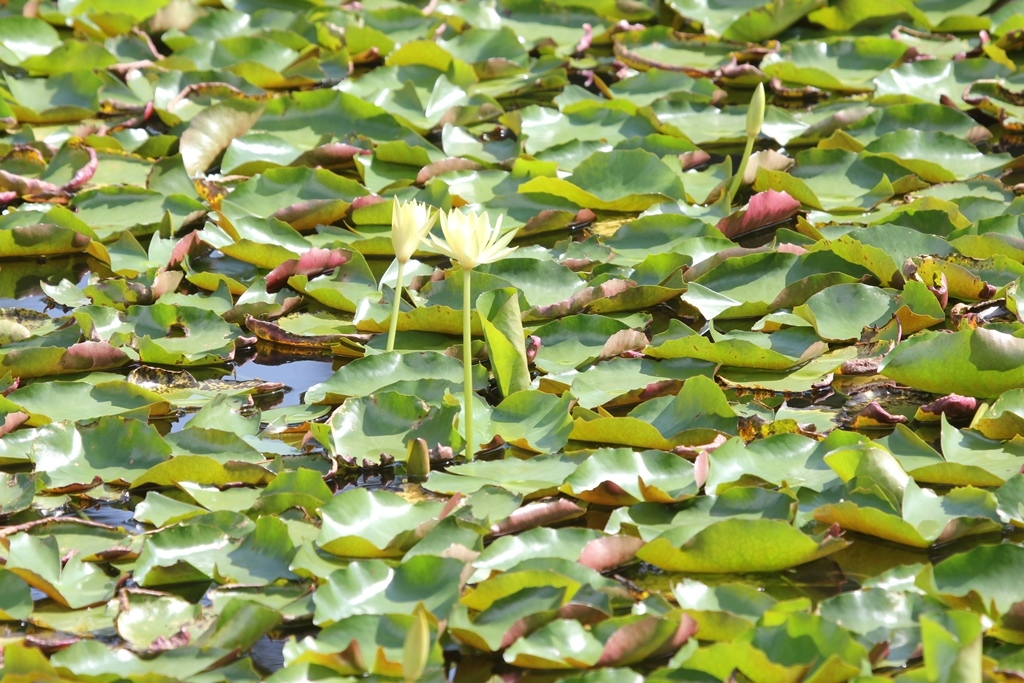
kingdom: Plantae
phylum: Tracheophyta
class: Magnoliopsida
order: Nymphaeales
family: Nymphaeaceae
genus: Nymphaea
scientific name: Nymphaea mexicana
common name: Banana water-lily
